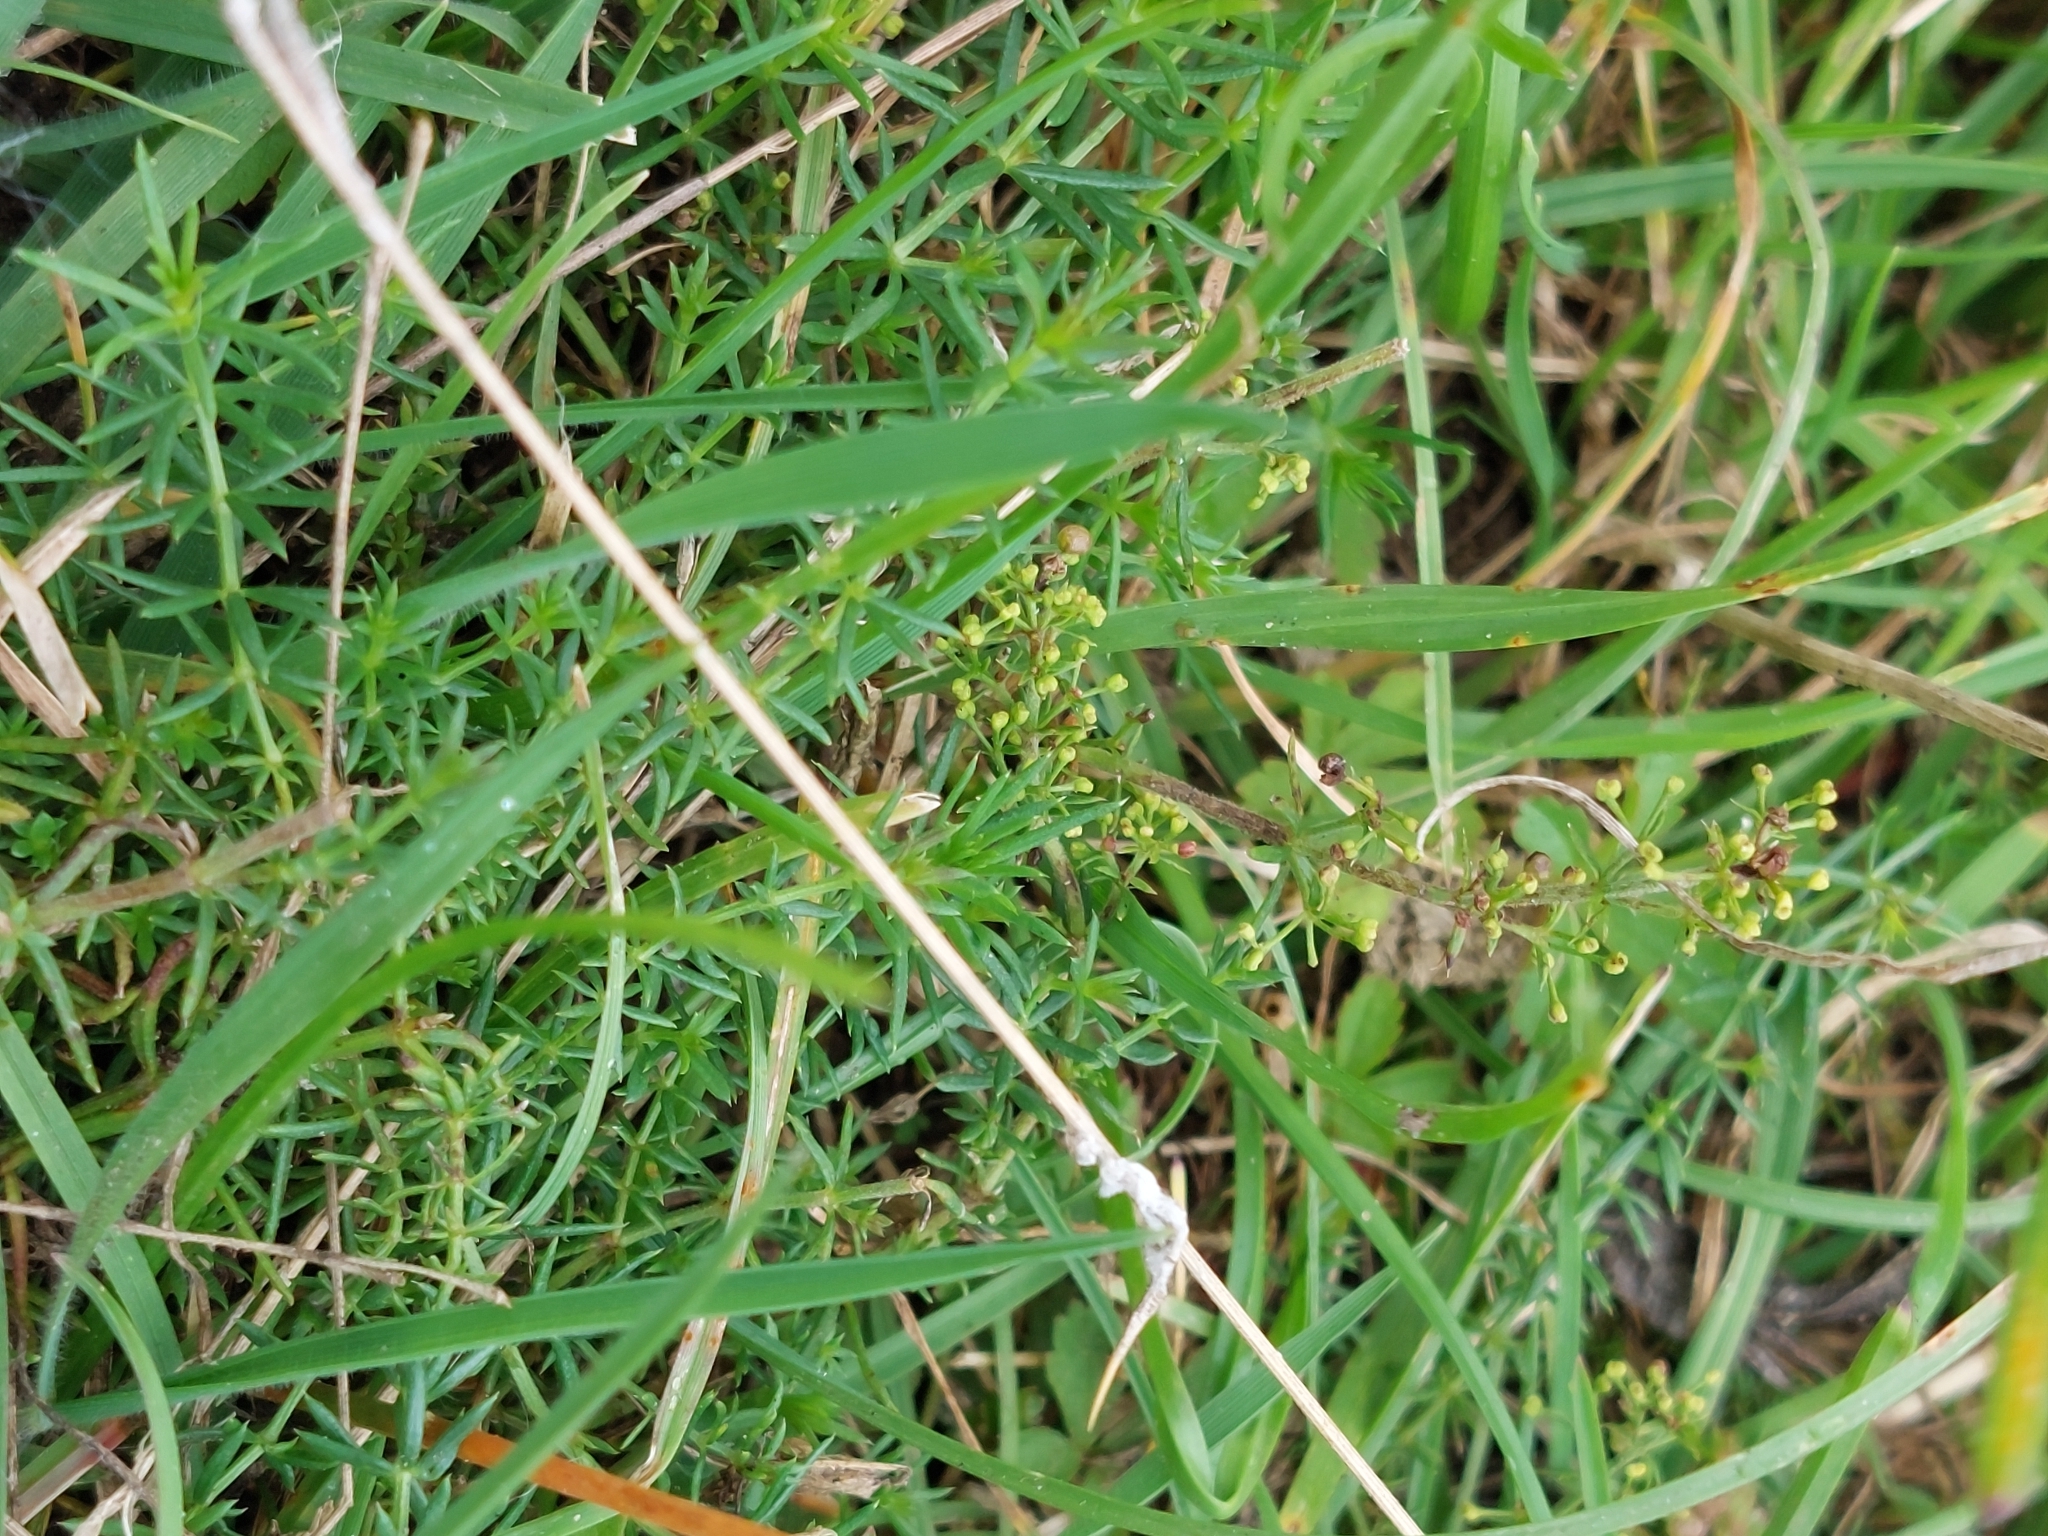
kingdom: Plantae
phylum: Tracheophyta
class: Magnoliopsida
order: Gentianales
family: Rubiaceae
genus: Galium
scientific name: Galium verum
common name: Lady's bedstraw
